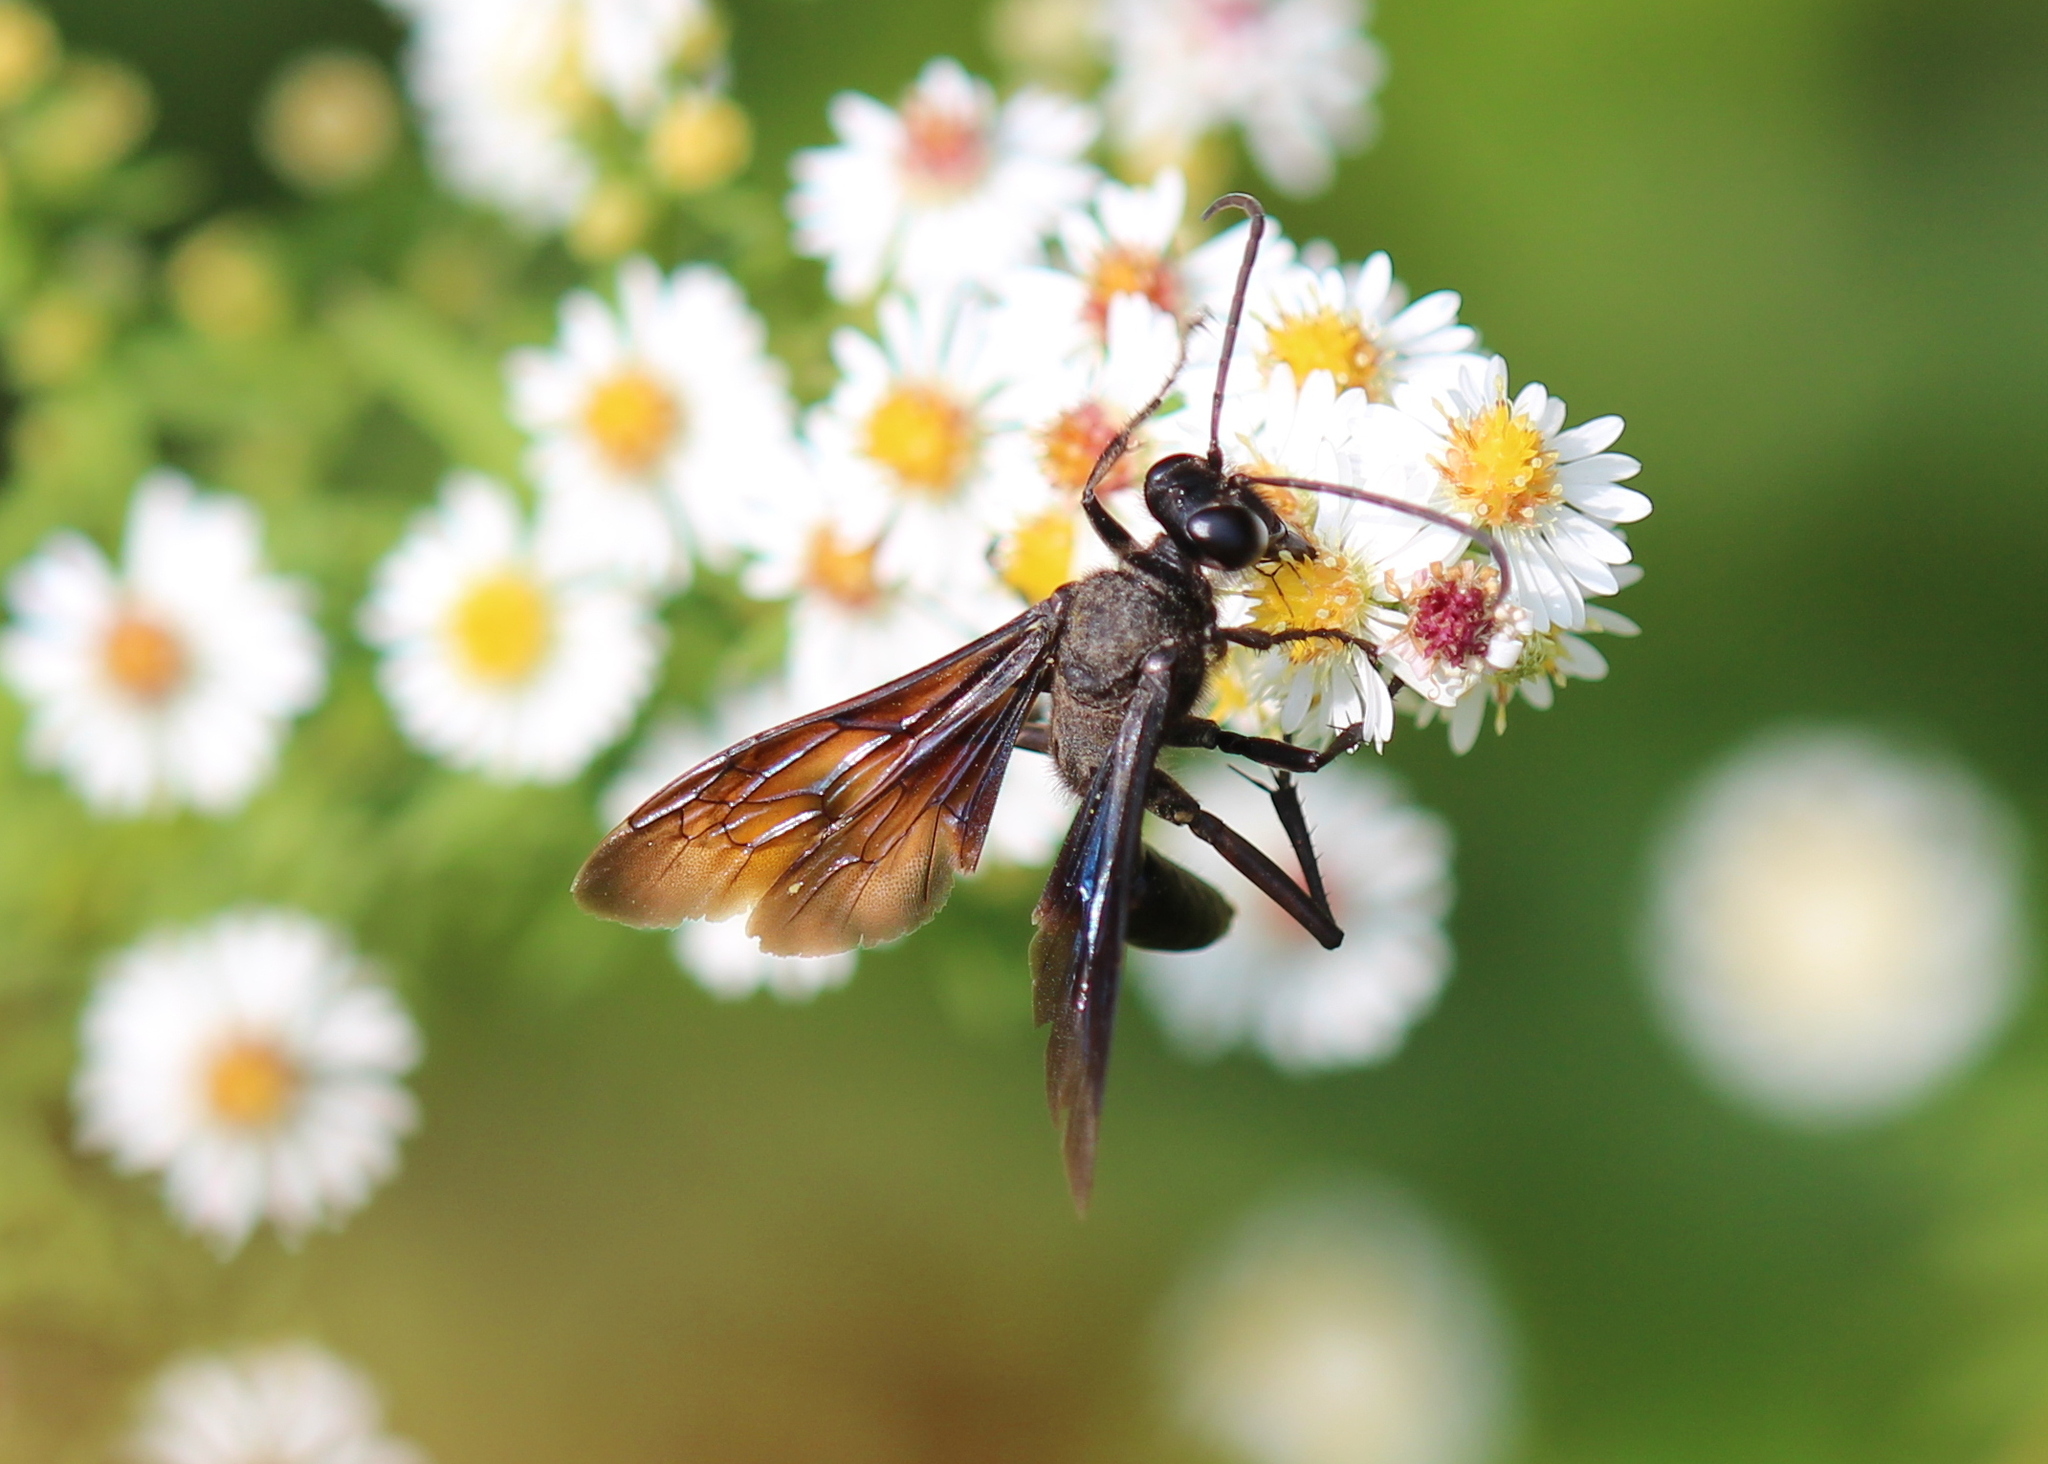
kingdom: Animalia
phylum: Arthropoda
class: Insecta
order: Hymenoptera
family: Sphecidae
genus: Sphex
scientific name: Sphex pensylvanicus
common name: Great black digger wasp
